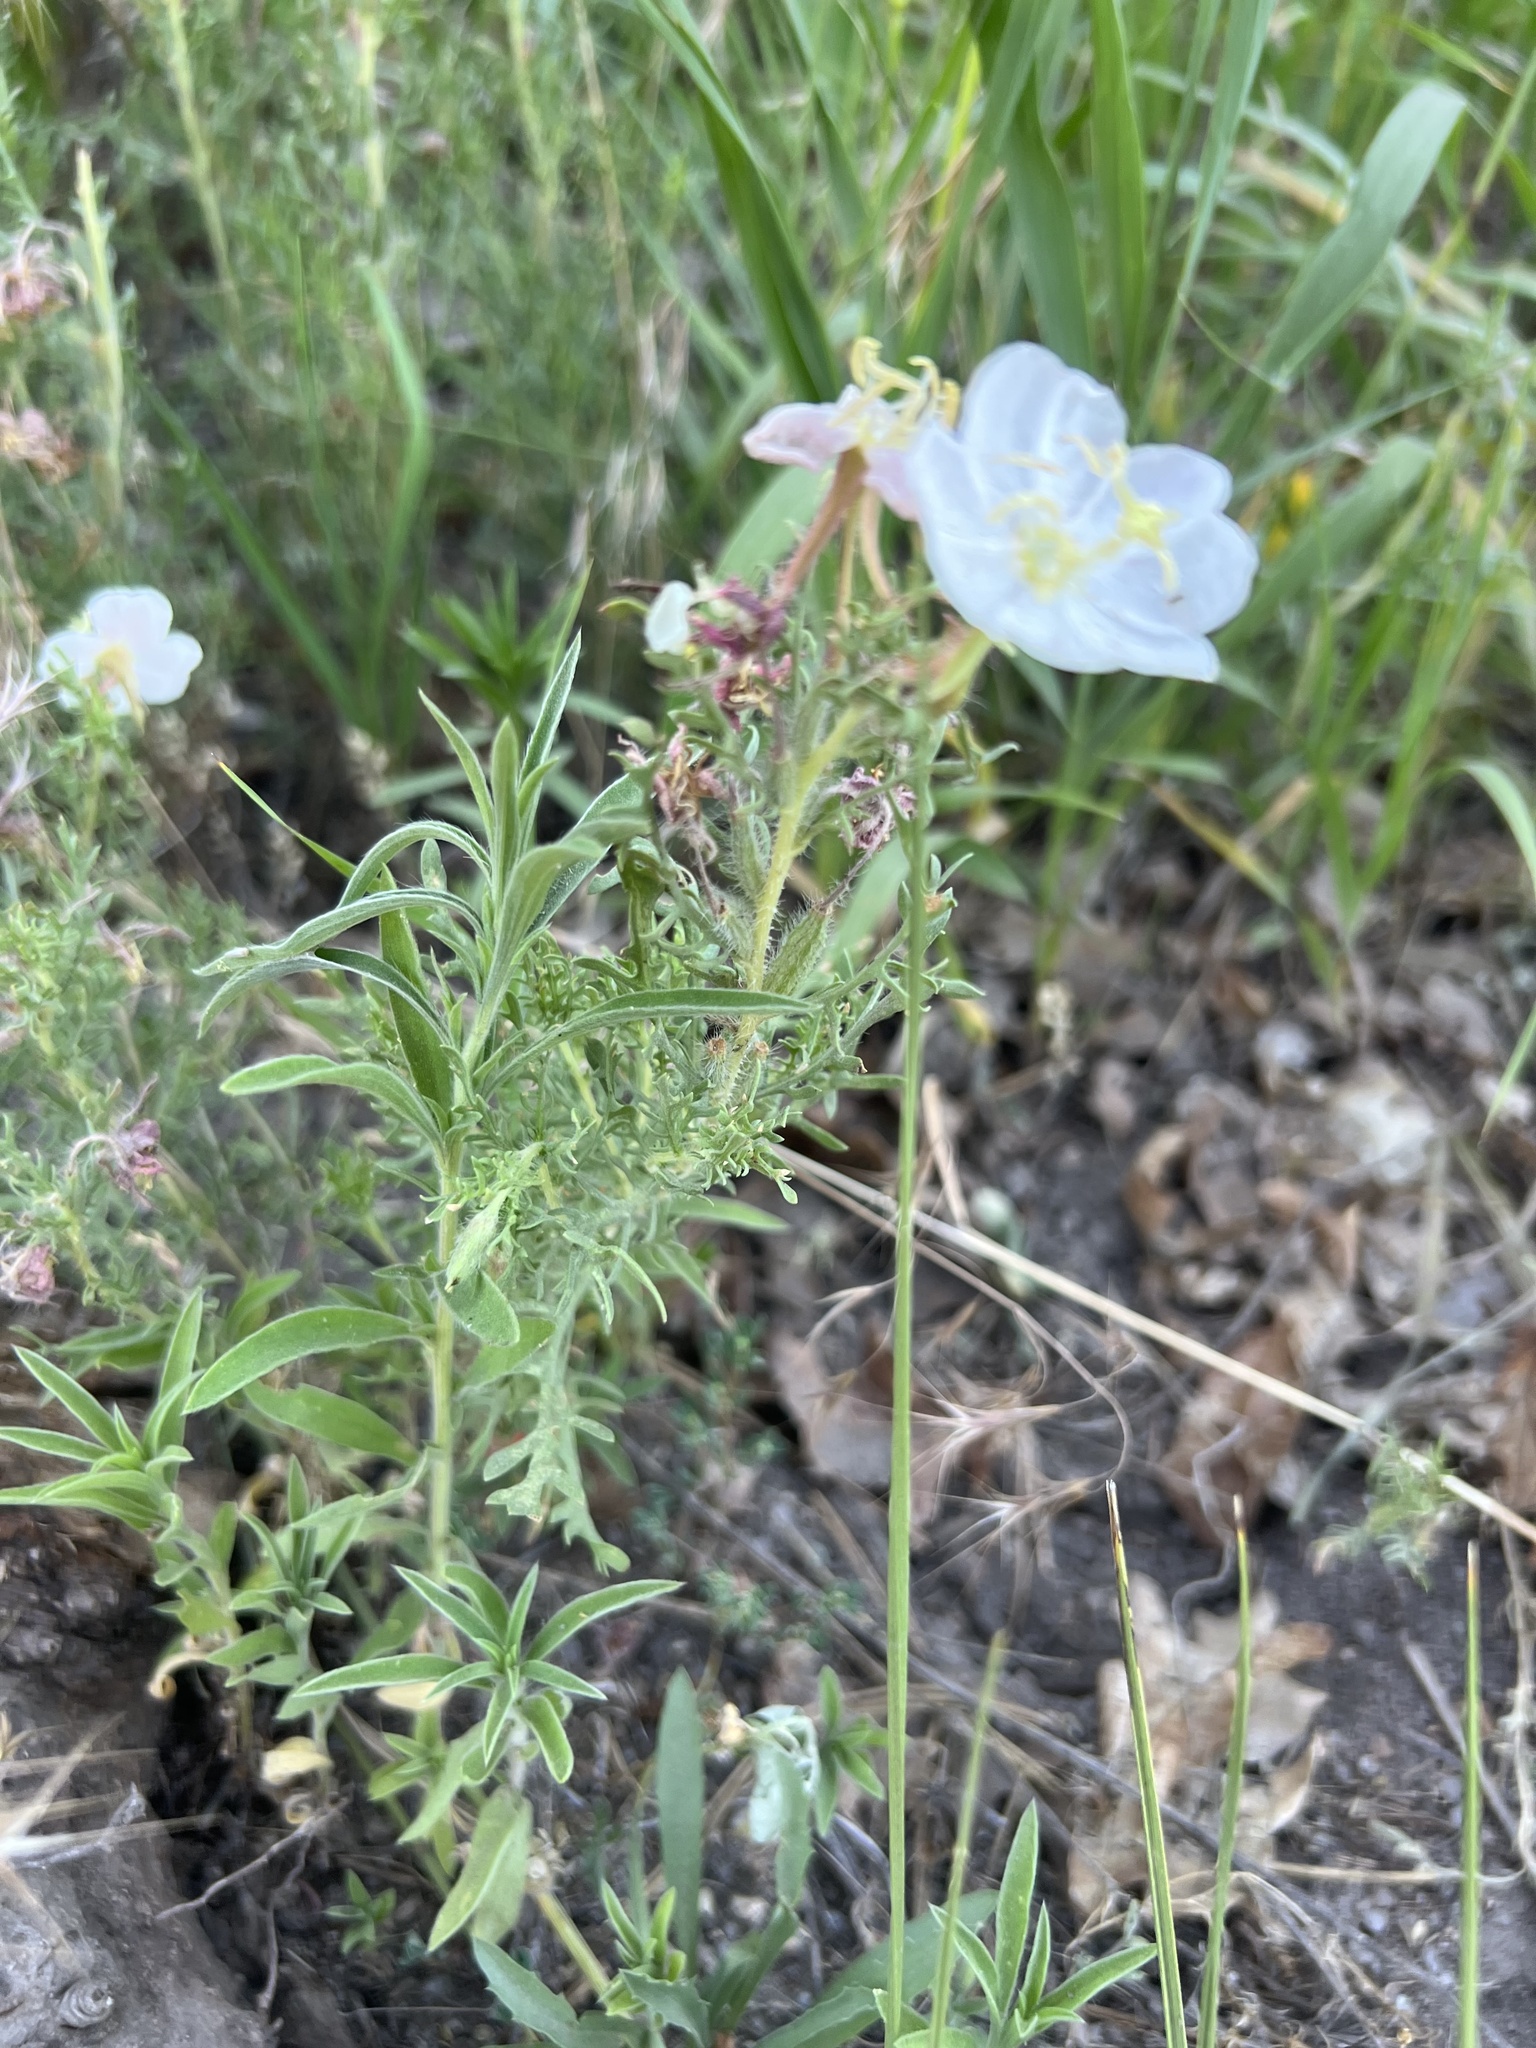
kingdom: Plantae
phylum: Tracheophyta
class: Magnoliopsida
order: Myrtales
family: Onagraceae
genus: Oenothera
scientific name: Oenothera coronopifolia
